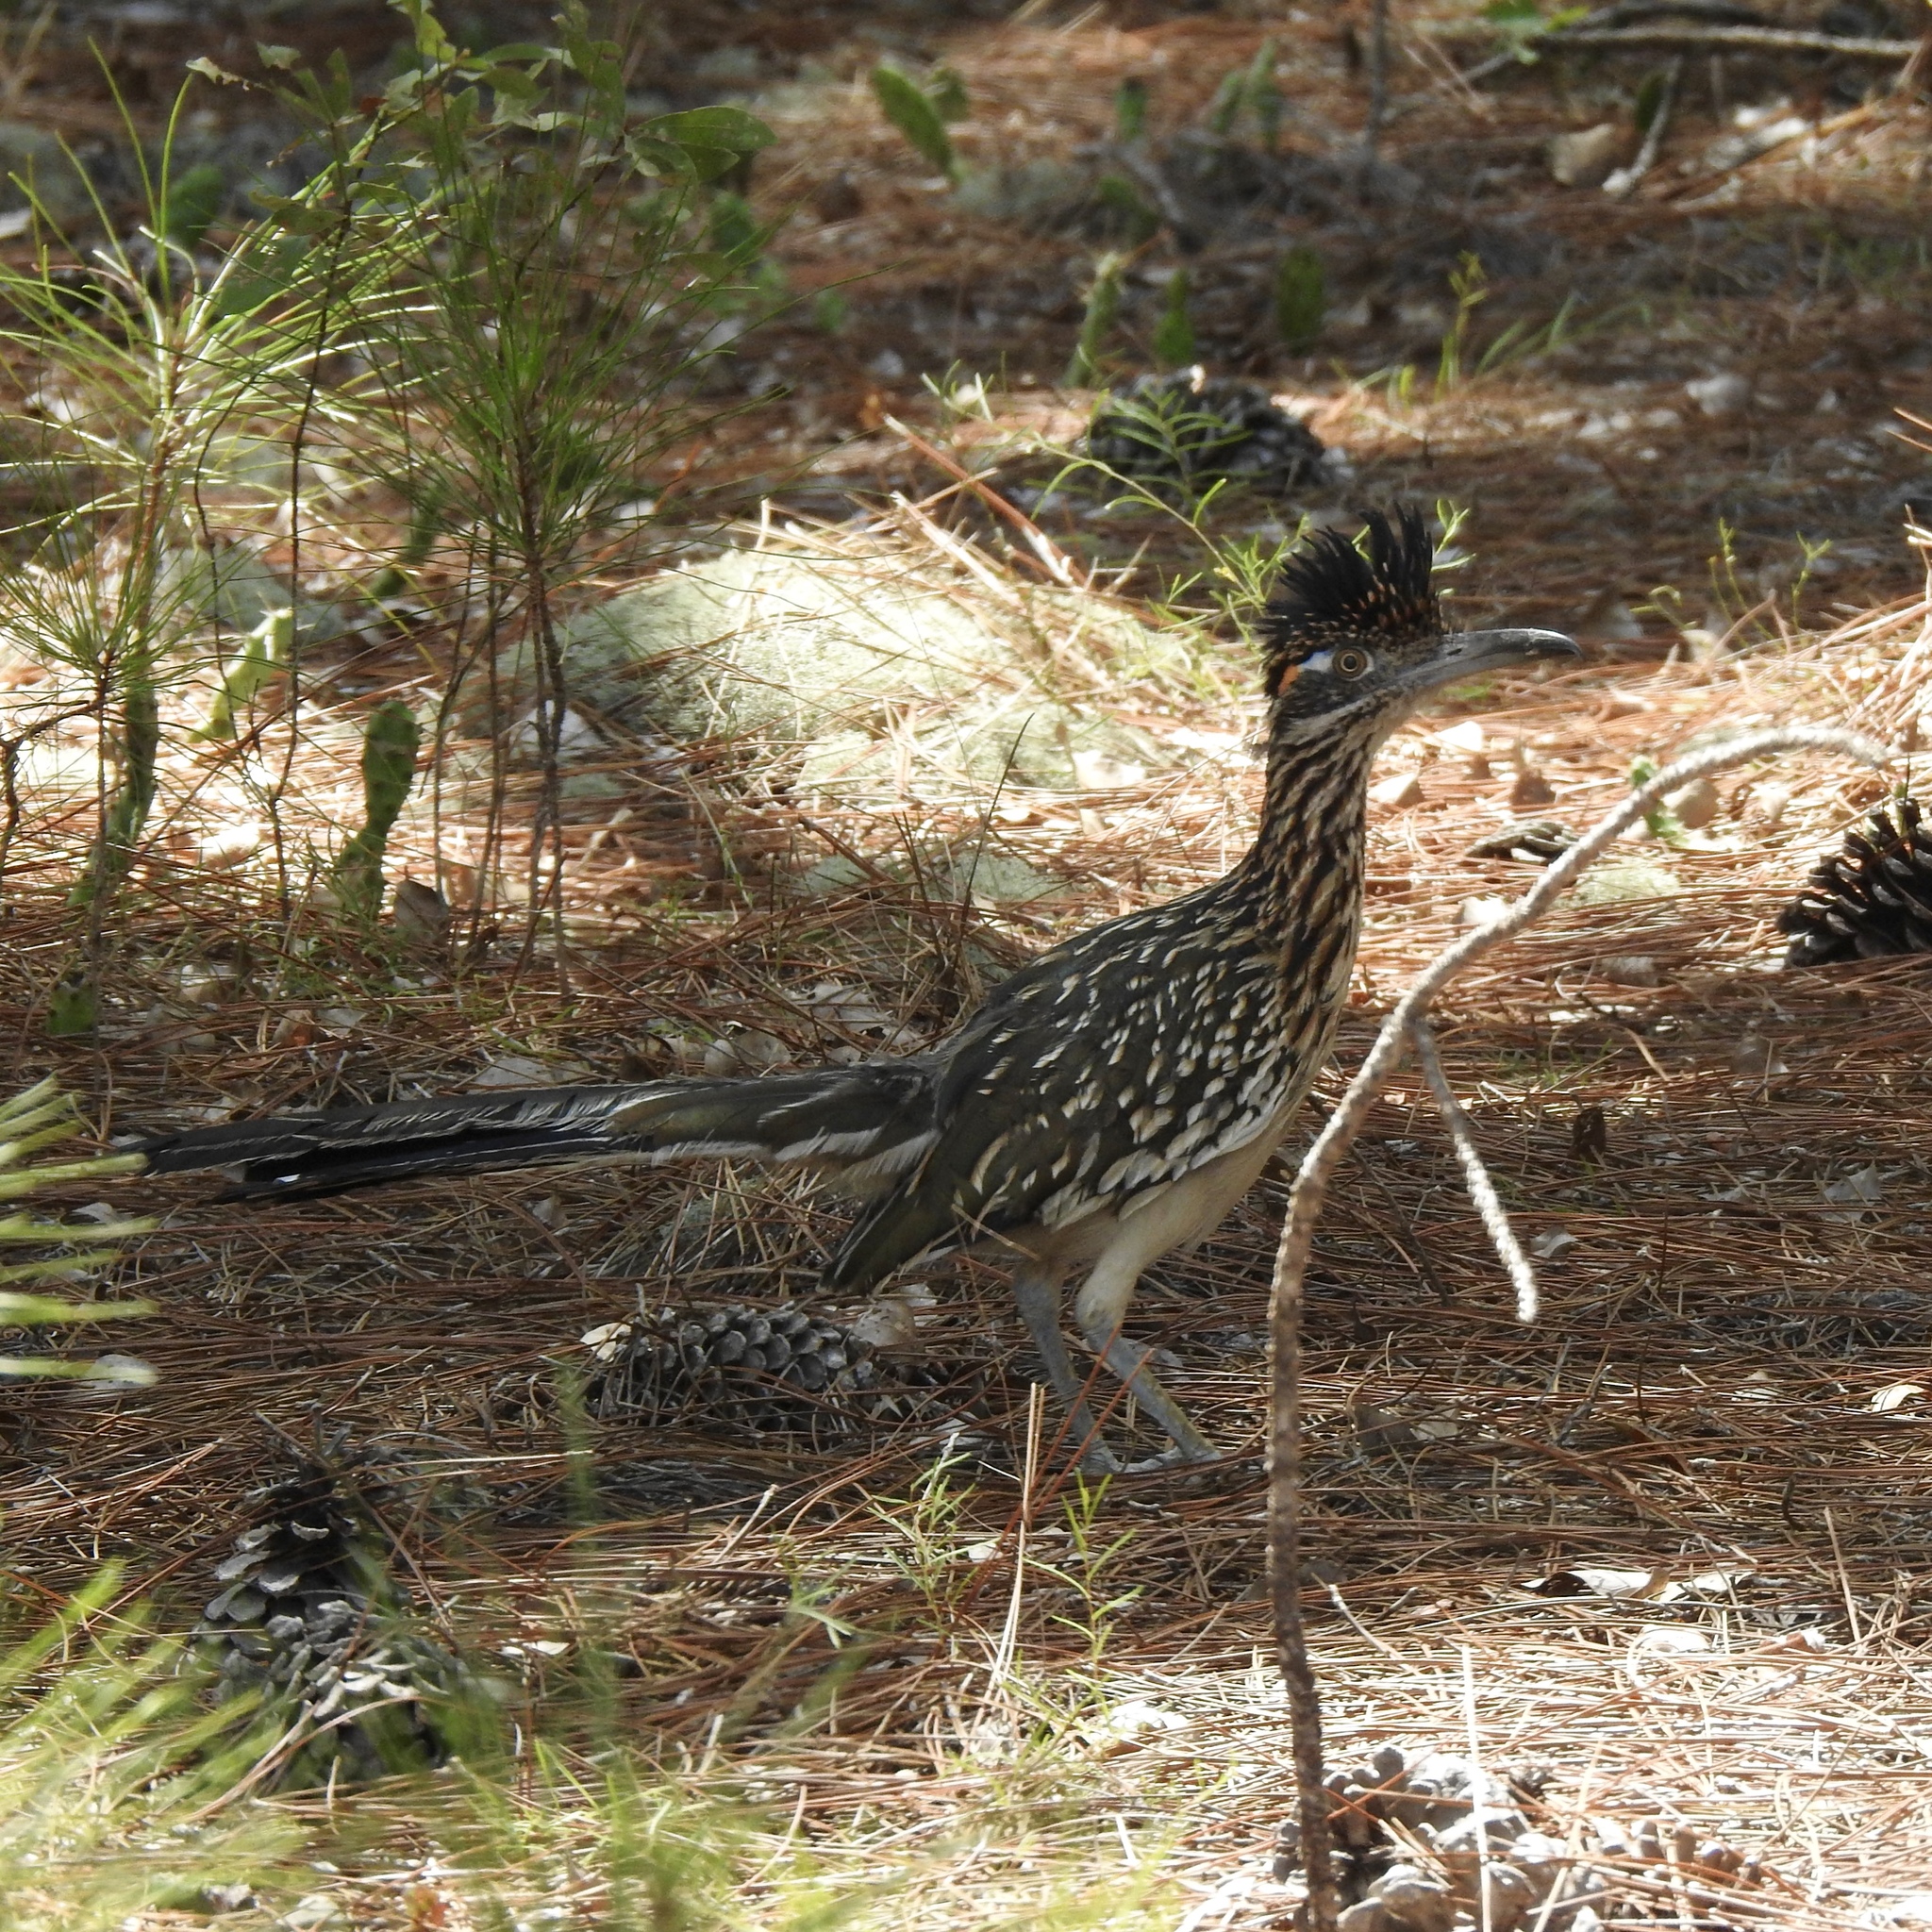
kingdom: Animalia
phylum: Chordata
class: Aves
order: Cuculiformes
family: Cuculidae
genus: Geococcyx
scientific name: Geococcyx californianus
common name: Greater roadrunner
